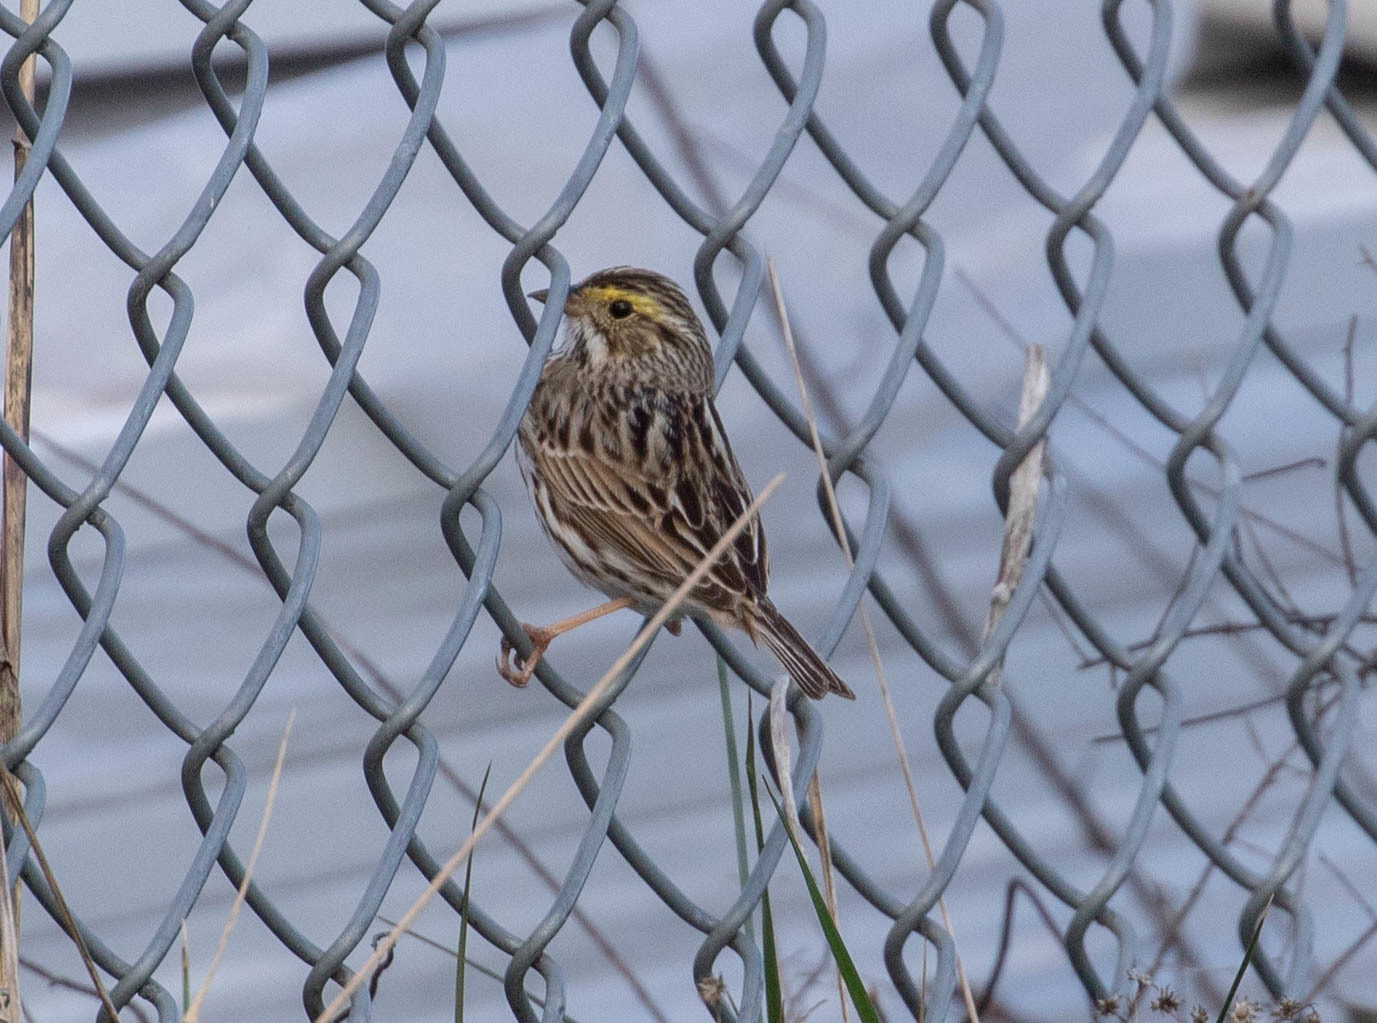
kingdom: Animalia
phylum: Chordata
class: Aves
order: Passeriformes
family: Passerellidae
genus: Passerculus
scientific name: Passerculus sandwichensis
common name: Savannah sparrow
